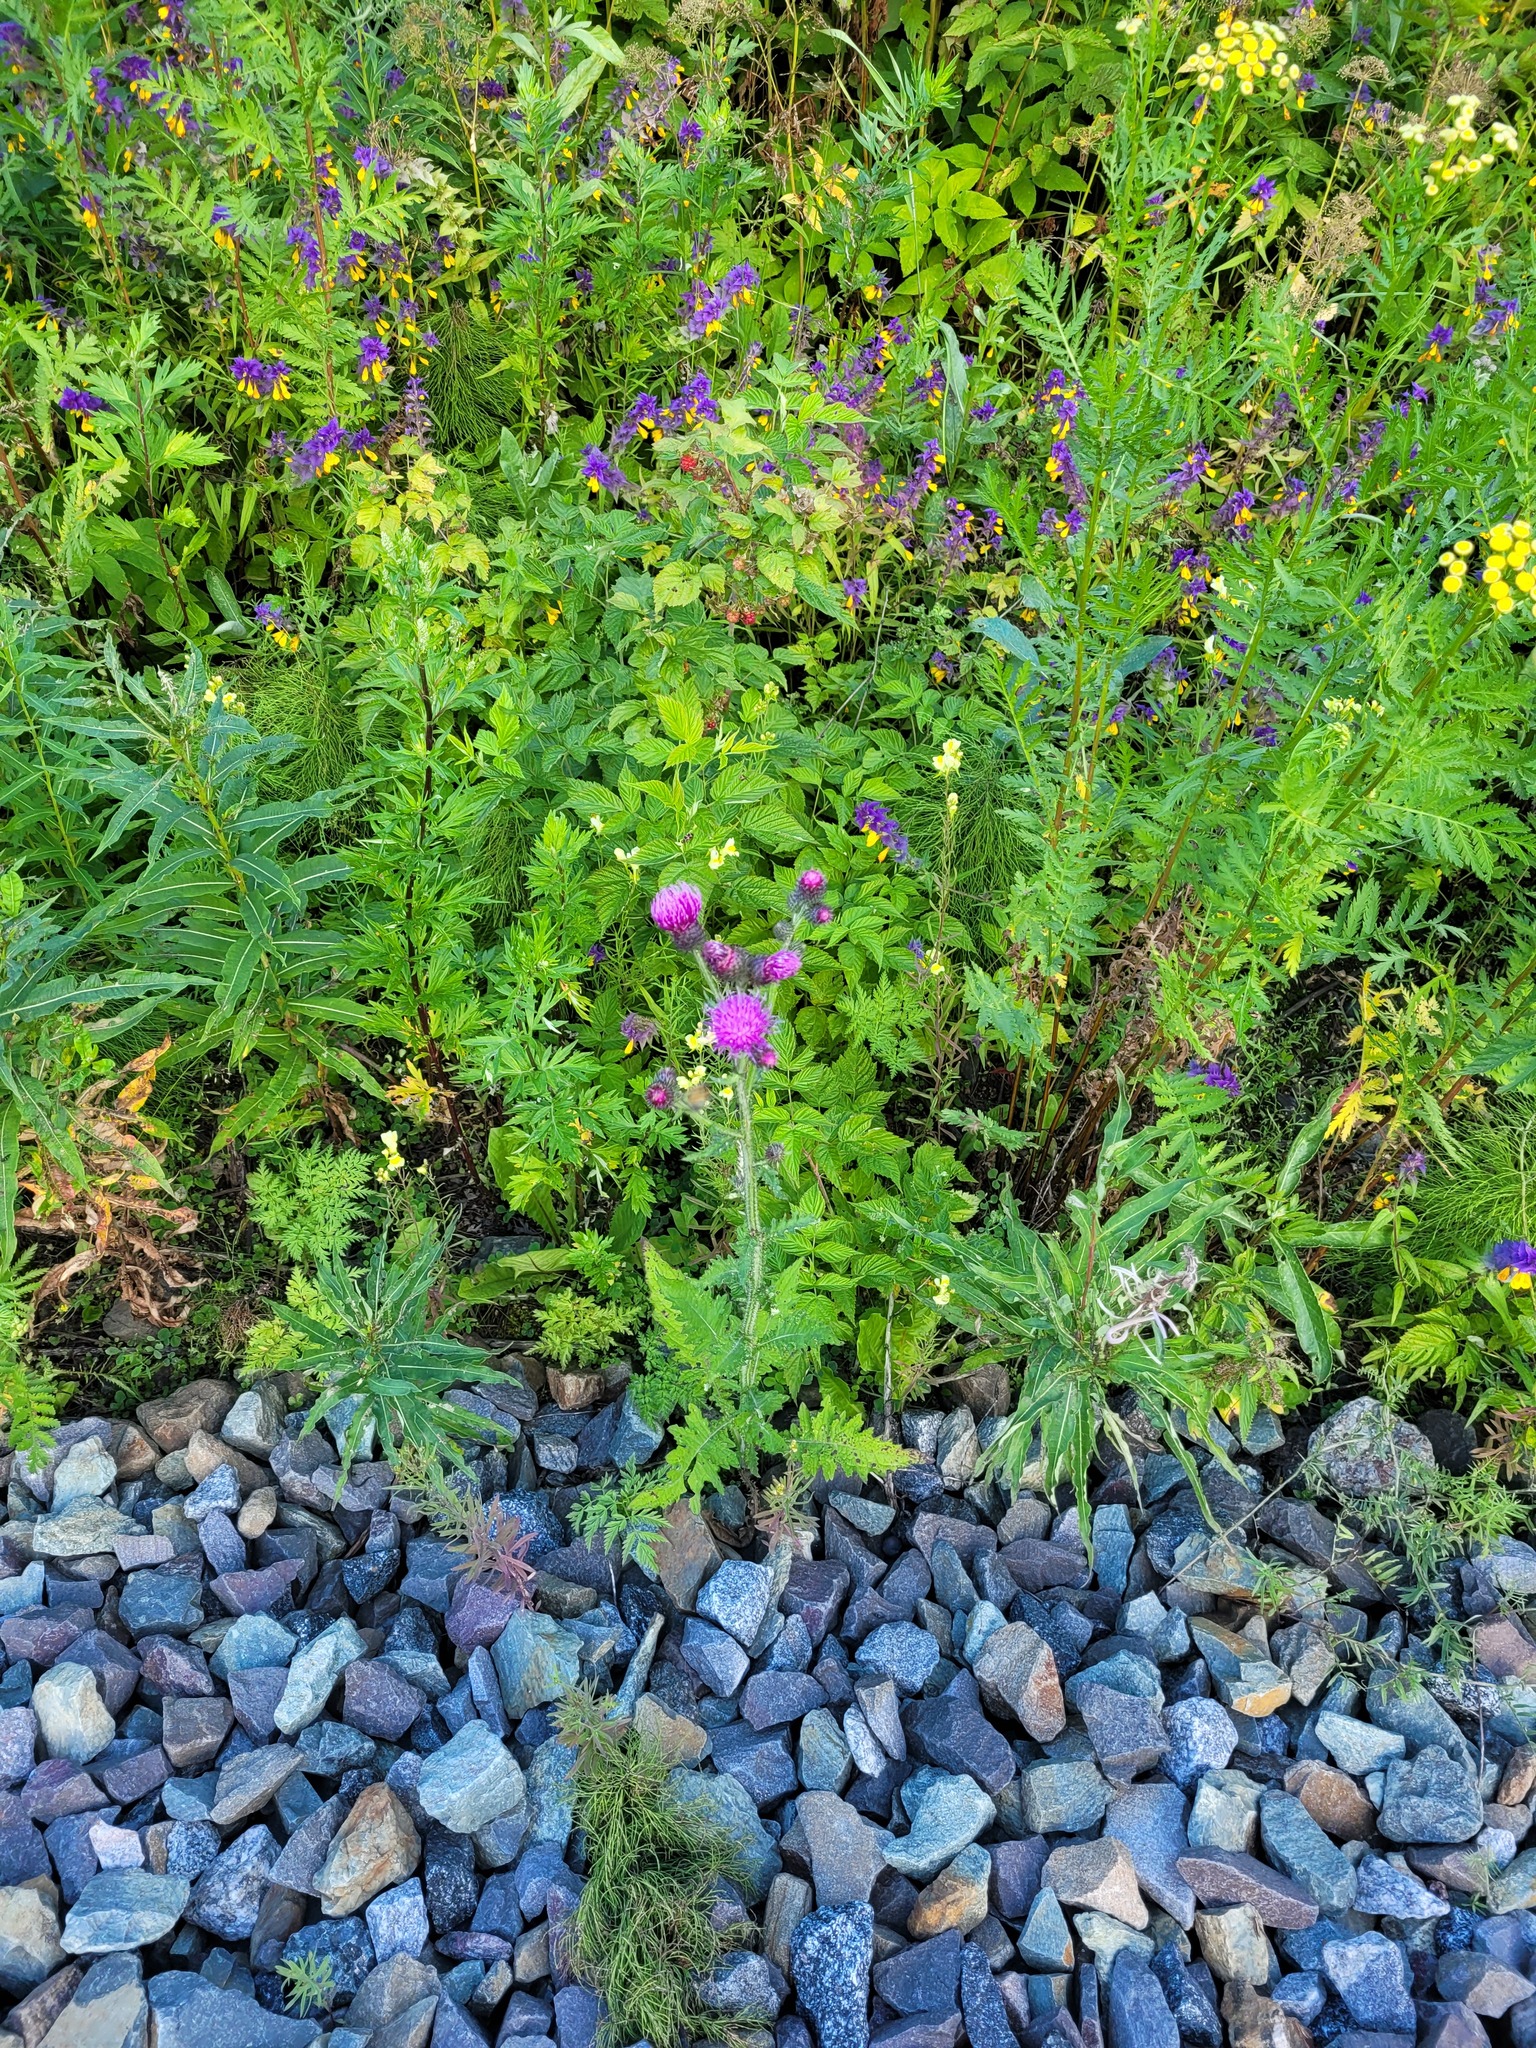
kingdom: Plantae
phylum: Tracheophyta
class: Magnoliopsida
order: Asterales
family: Asteraceae
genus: Carduus
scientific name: Carduus crispus
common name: Welted thistle
